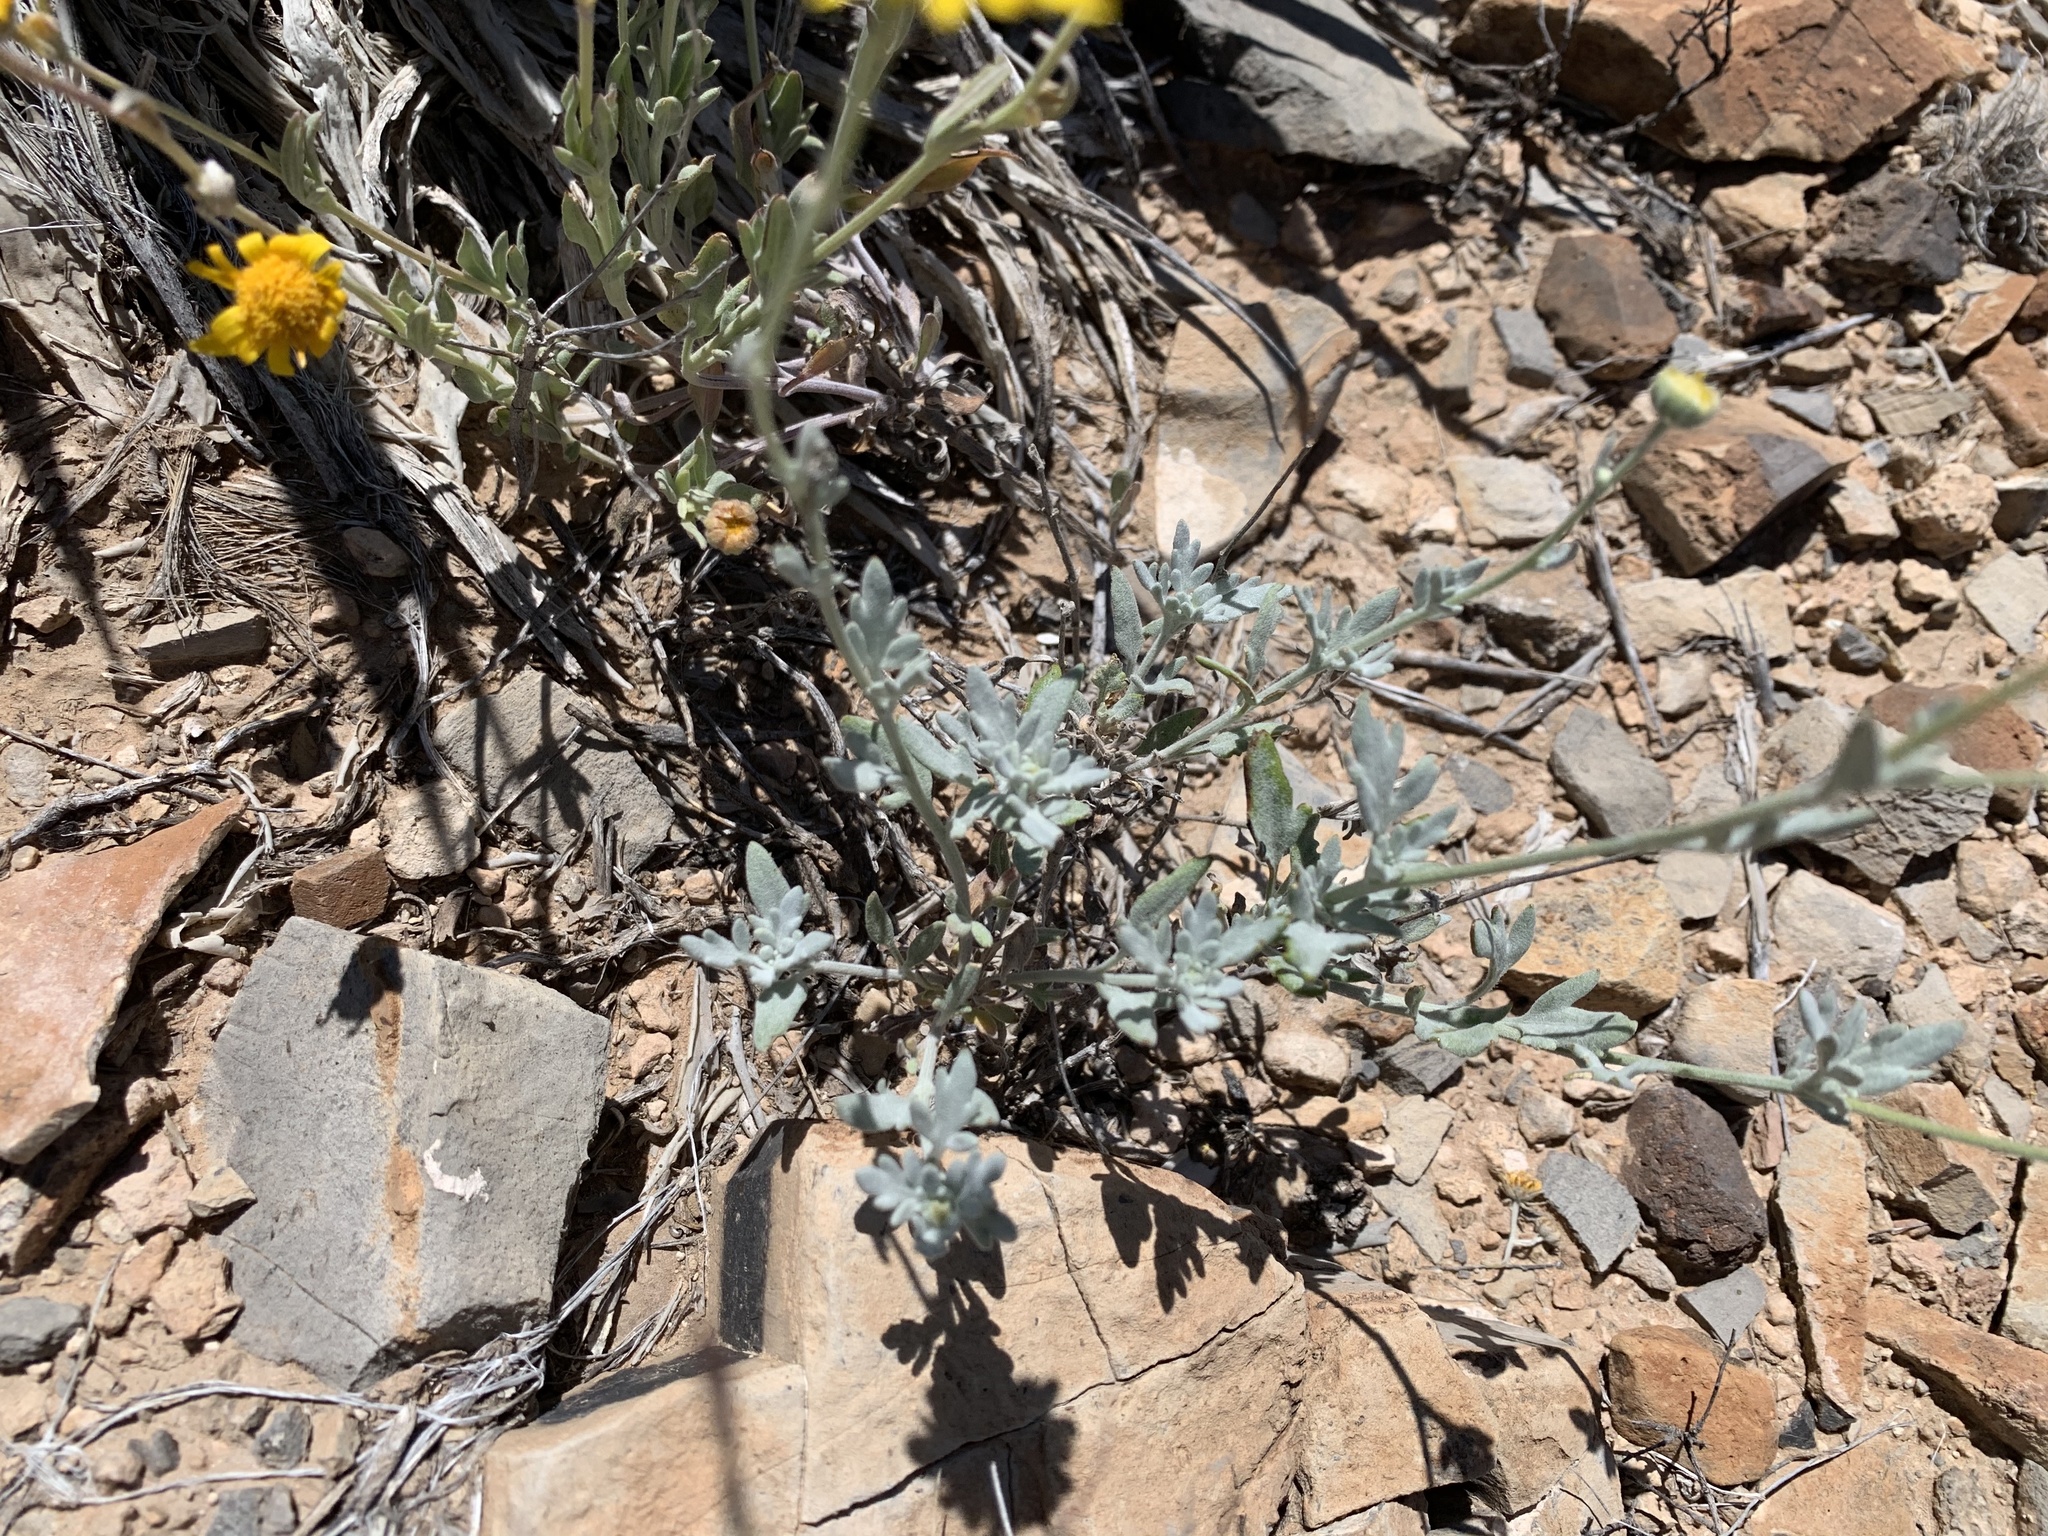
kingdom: Plantae
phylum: Tracheophyta
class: Magnoliopsida
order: Asterales
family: Asteraceae
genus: Picradeniopsis
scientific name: Picradeniopsis absinthifolia
